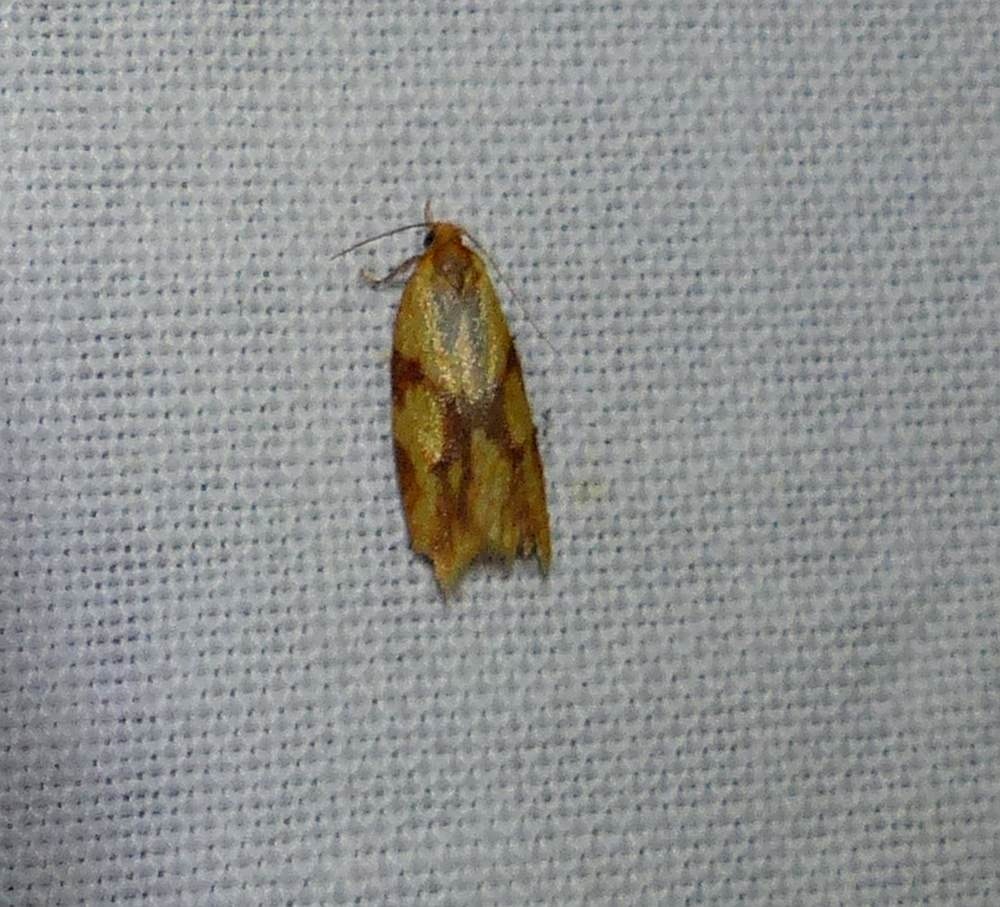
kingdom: Animalia
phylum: Arthropoda
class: Insecta
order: Lepidoptera
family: Tortricidae
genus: Sparganothis
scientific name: Sparganothis sulfureana
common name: Sparganothis fruitworm moth
